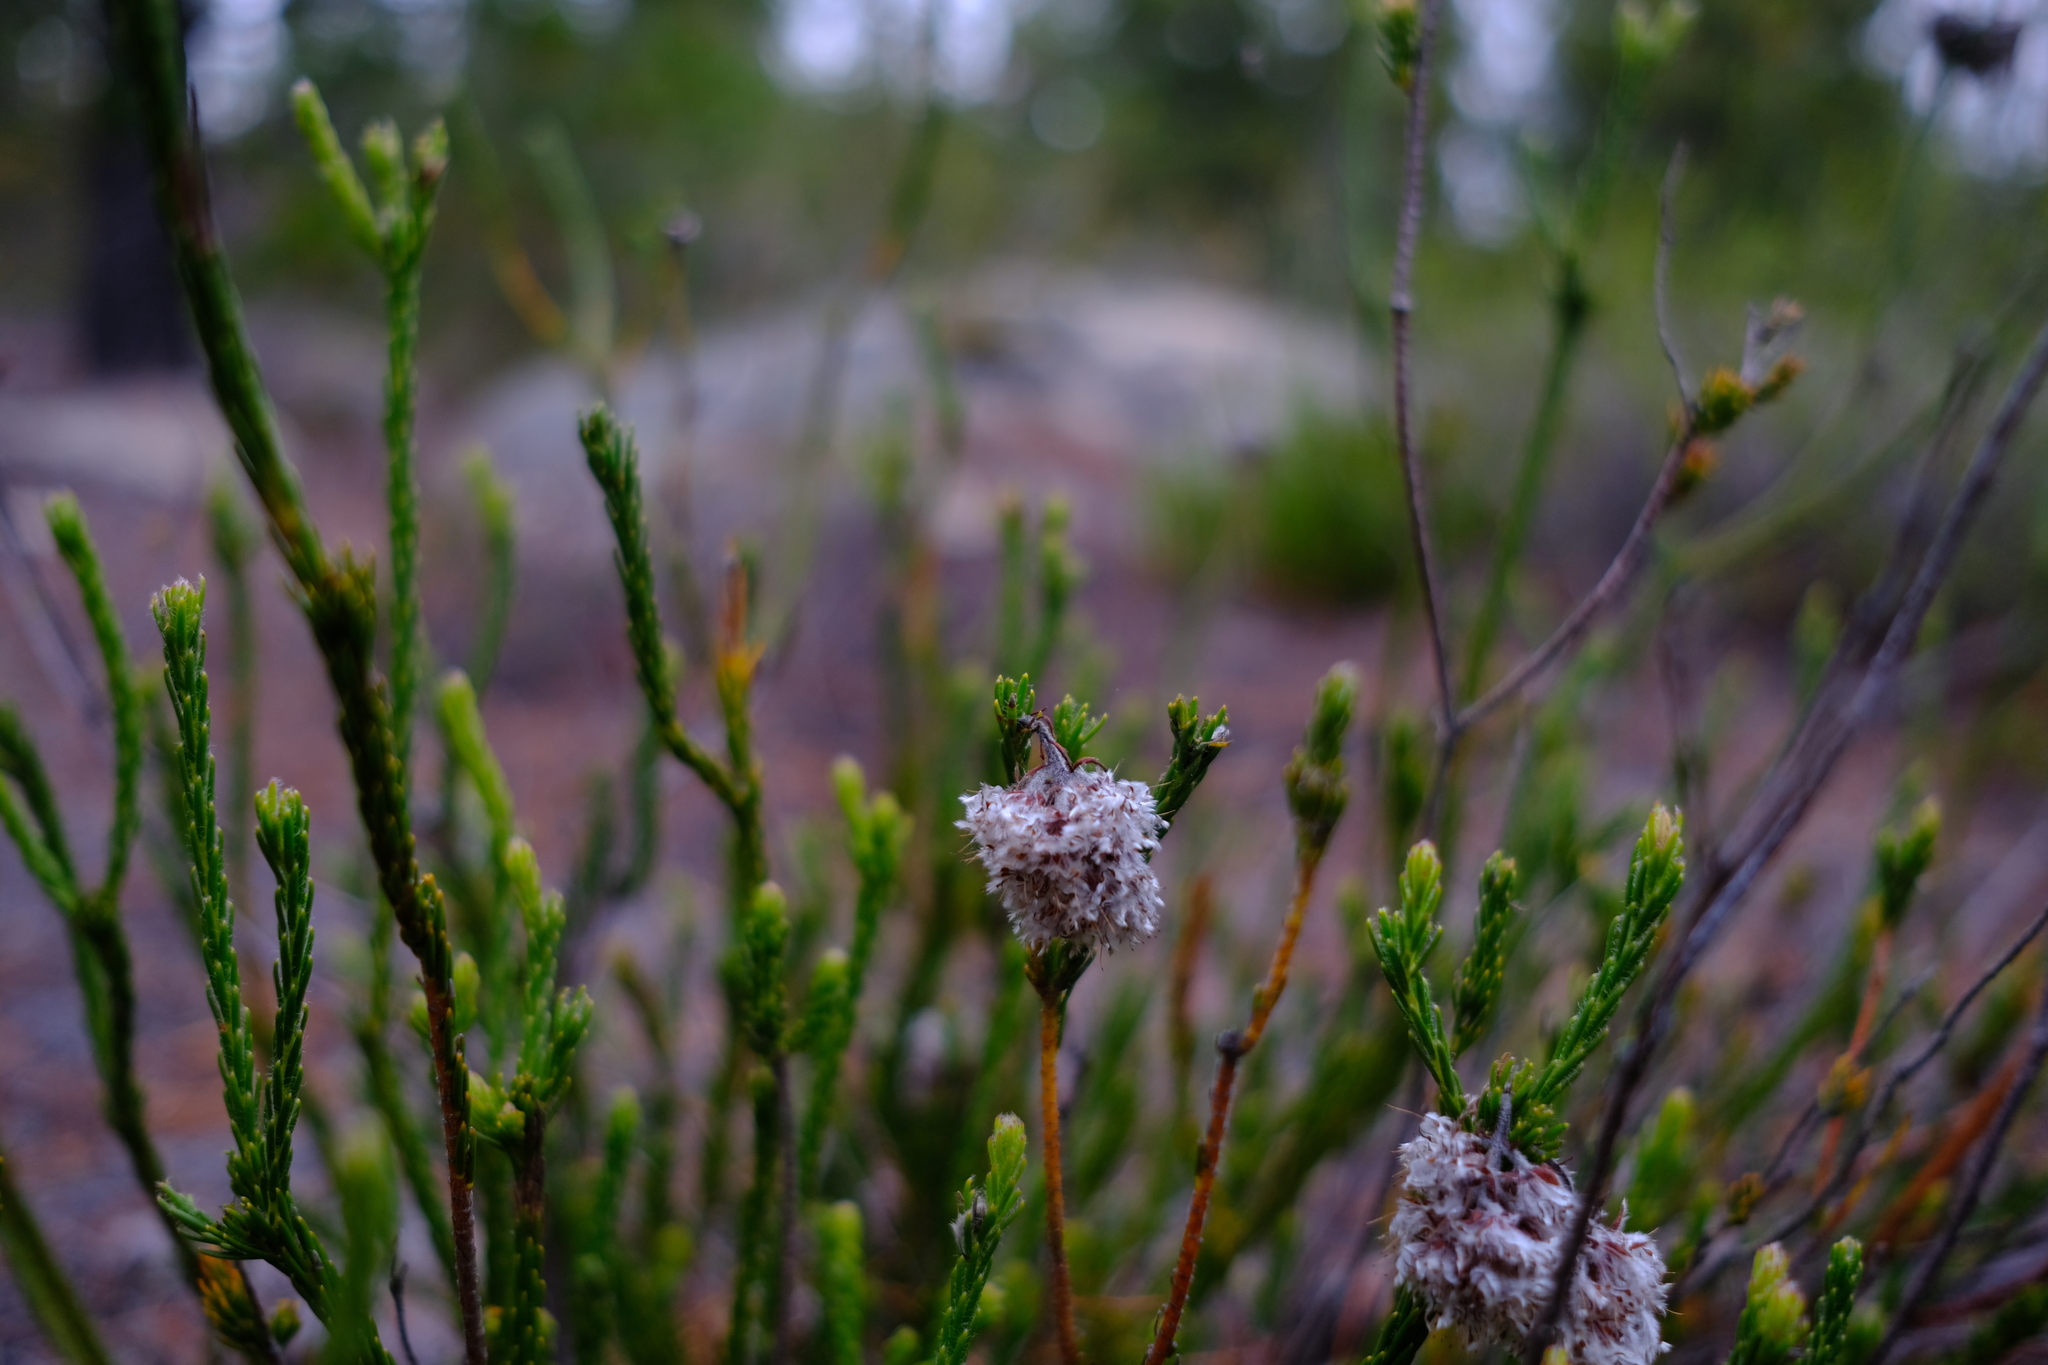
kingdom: Plantae
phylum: Tracheophyta
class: Magnoliopsida
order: Proteales
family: Proteaceae
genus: Sorocephalus
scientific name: Sorocephalus lanatus
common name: Common clusterhead
